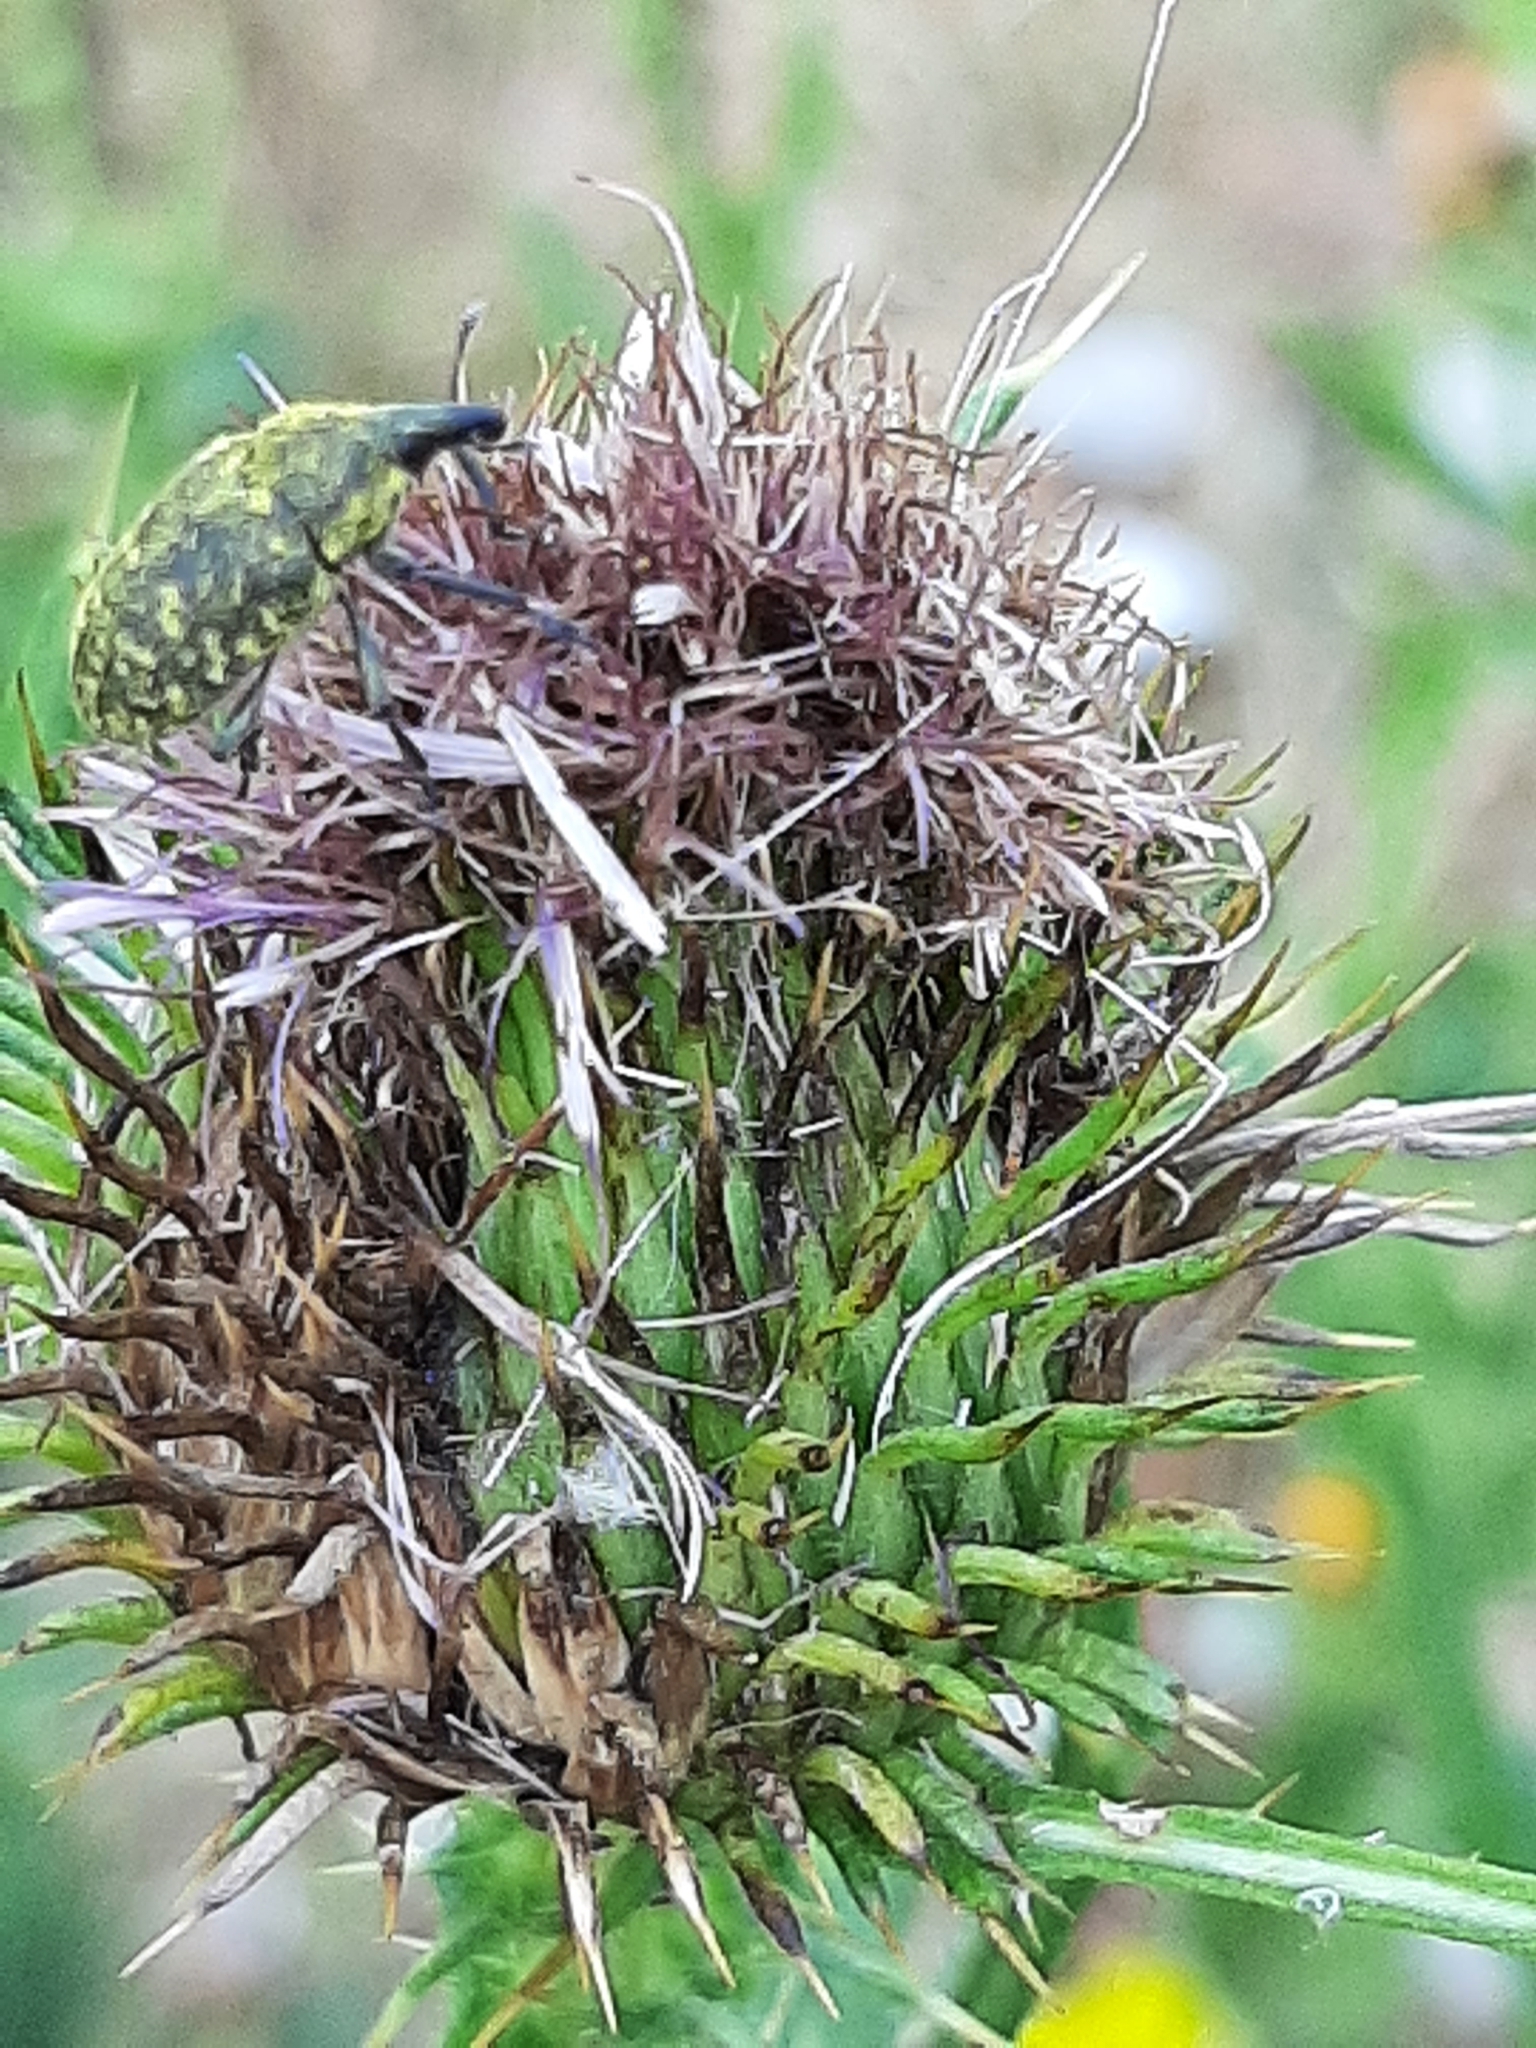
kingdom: Animalia
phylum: Arthropoda
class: Insecta
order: Coleoptera
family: Curculionidae
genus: Larinus
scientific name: Larinus turbinatus
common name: Weevil
